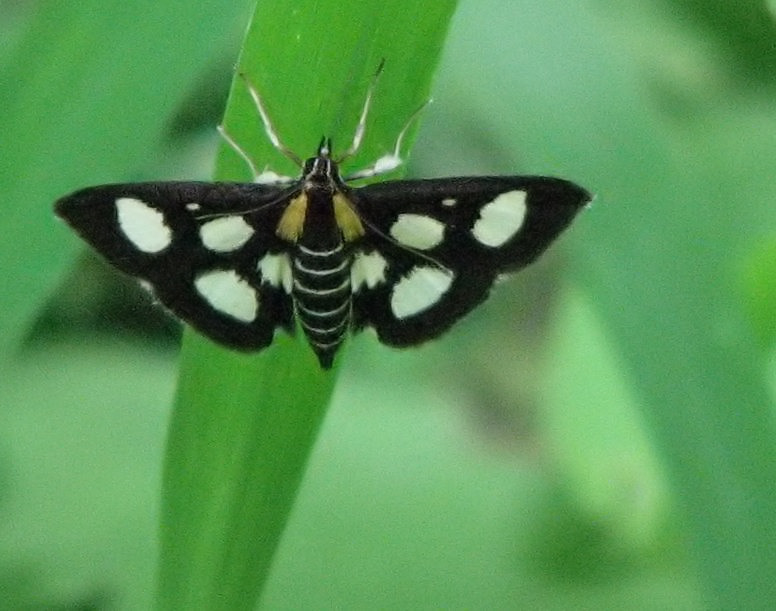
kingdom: Animalia
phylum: Arthropoda
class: Insecta
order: Lepidoptera
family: Crambidae
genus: Anania
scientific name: Anania funebris
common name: White-spotted sable moth
